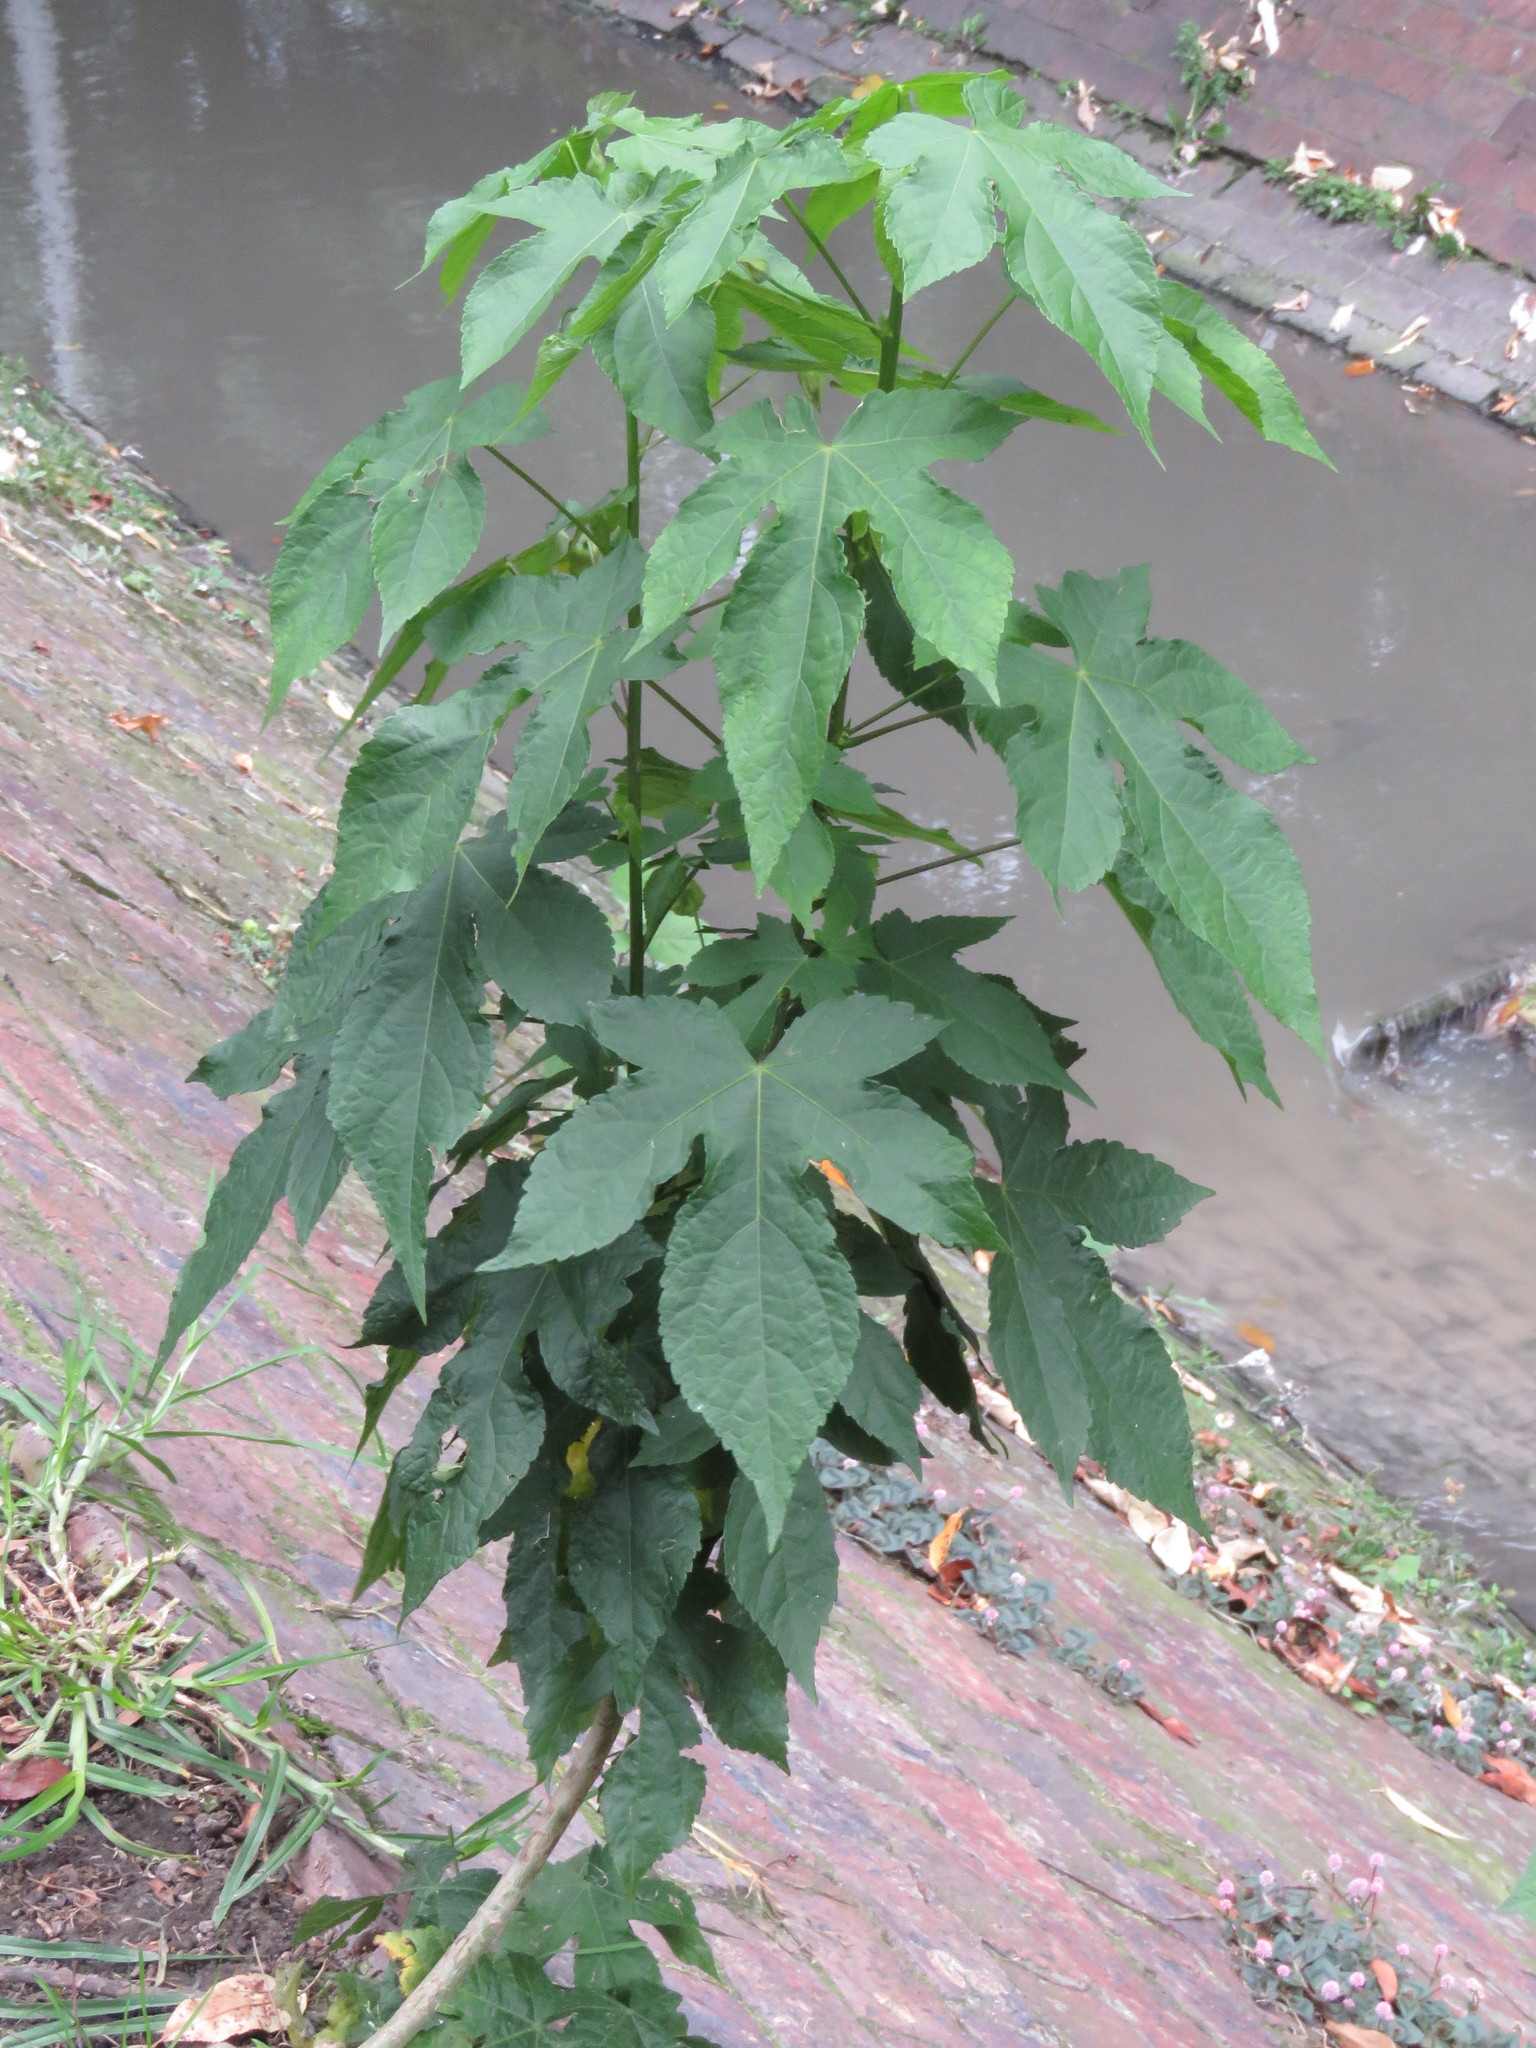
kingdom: Plantae
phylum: Tracheophyta
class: Magnoliopsida
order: Malvales
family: Malvaceae
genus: Callianthe
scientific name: Callianthe picta
